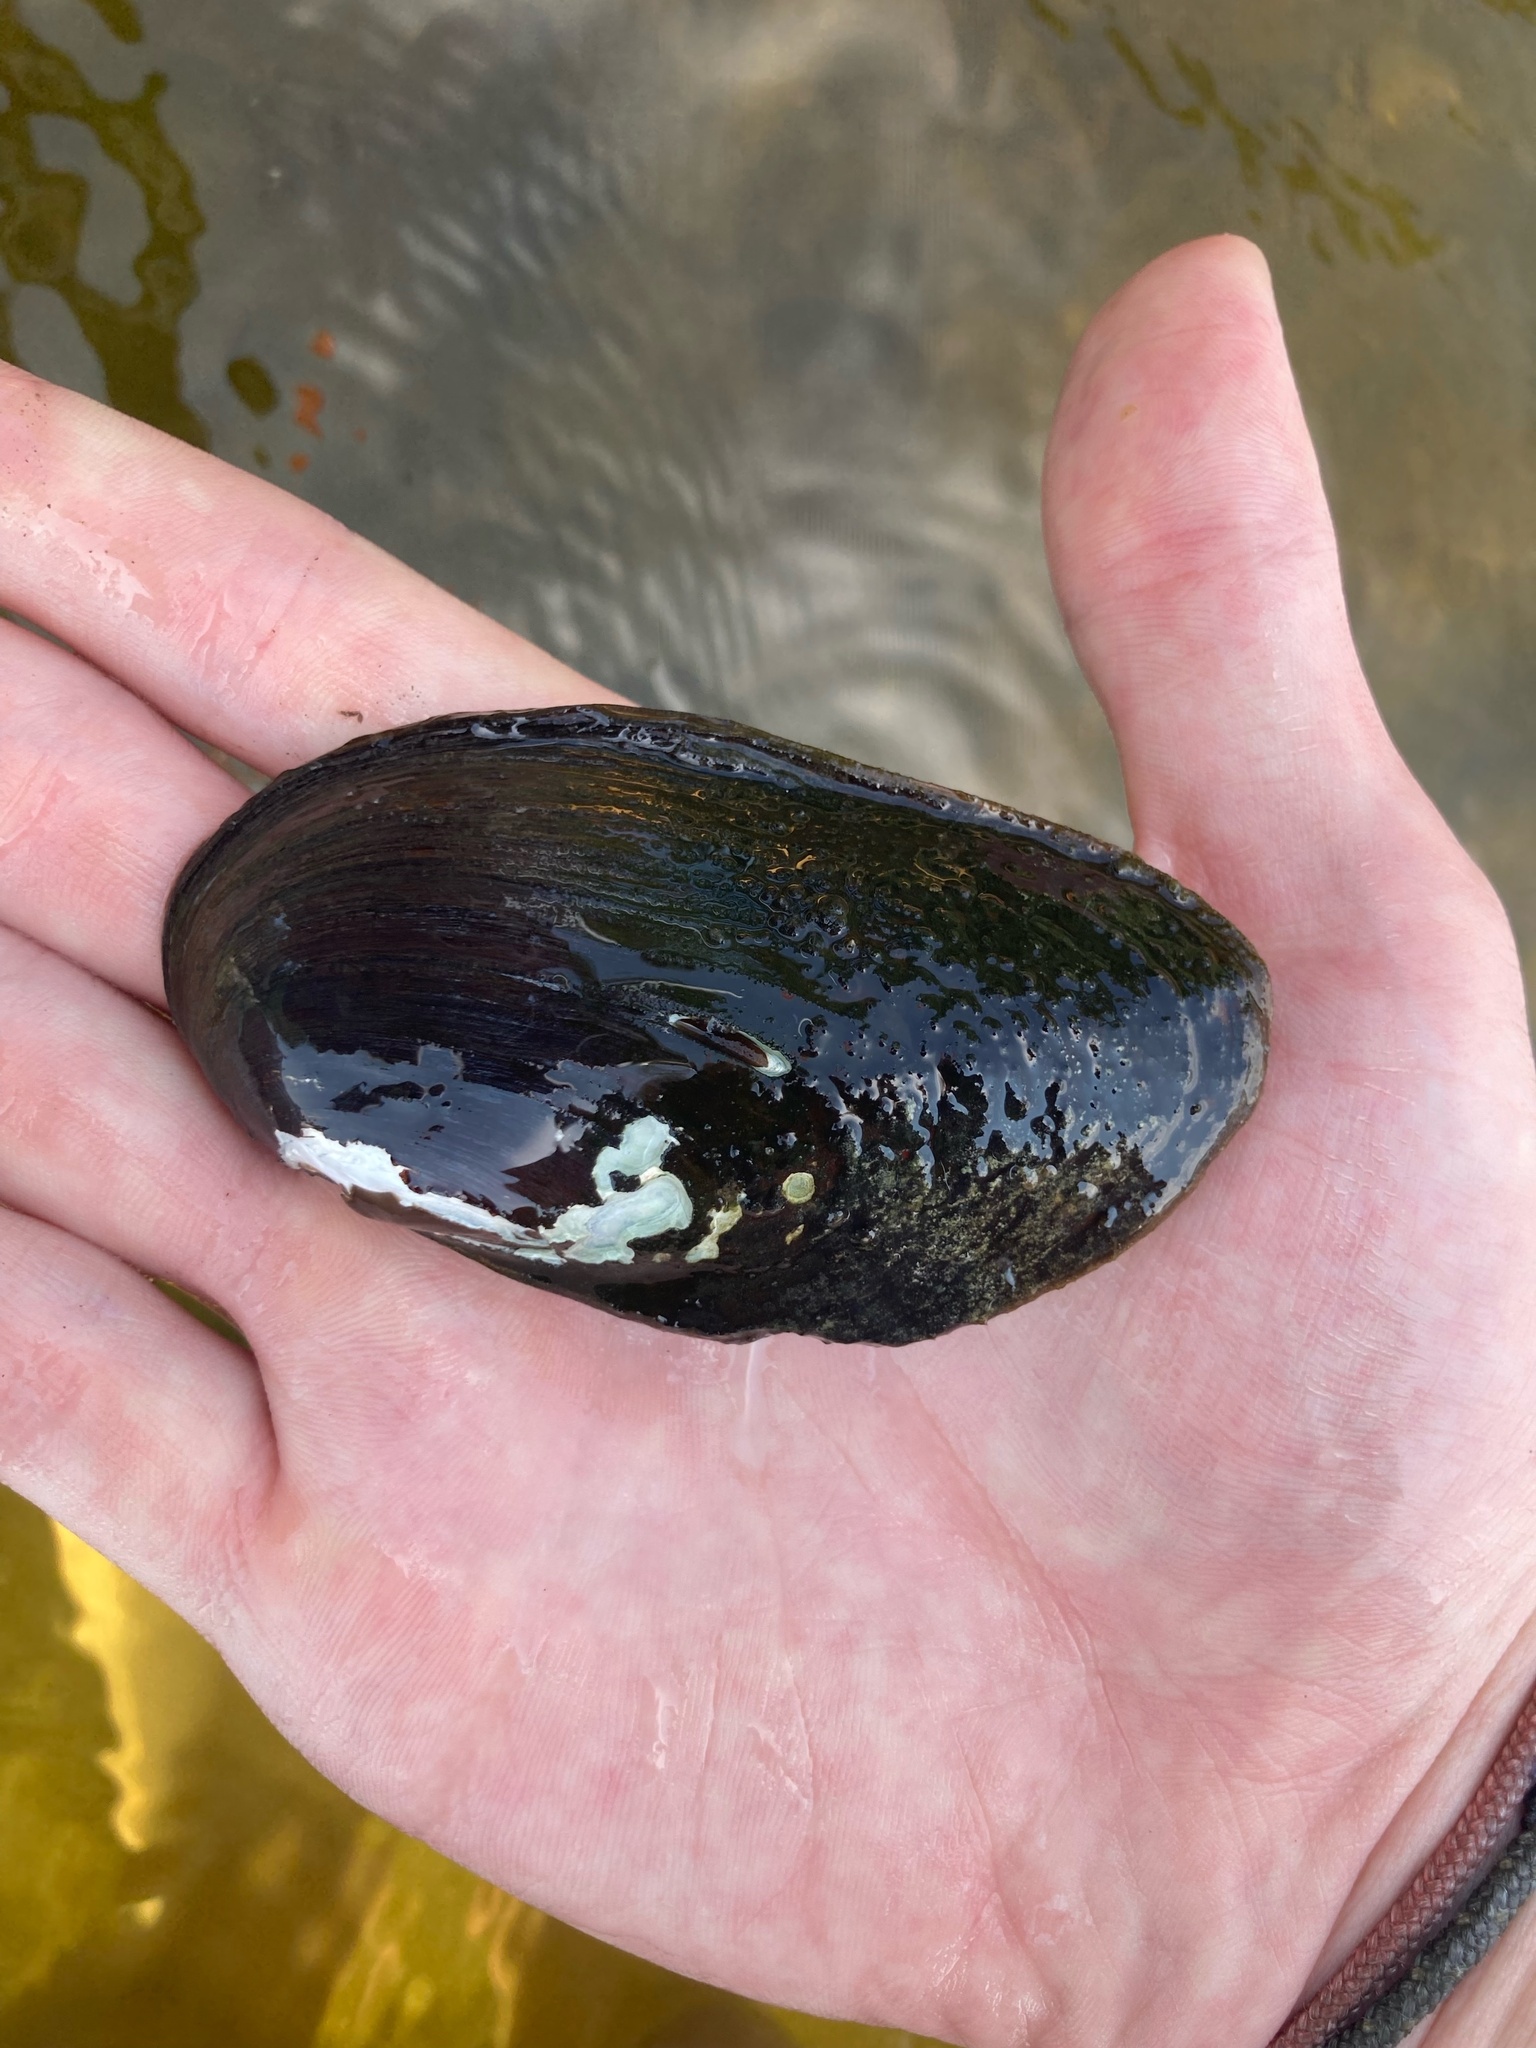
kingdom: Animalia
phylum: Mollusca
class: Bivalvia
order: Unionida
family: Unionidae
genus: Elliptio
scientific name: Elliptio complanata
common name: Eastern elliptio
